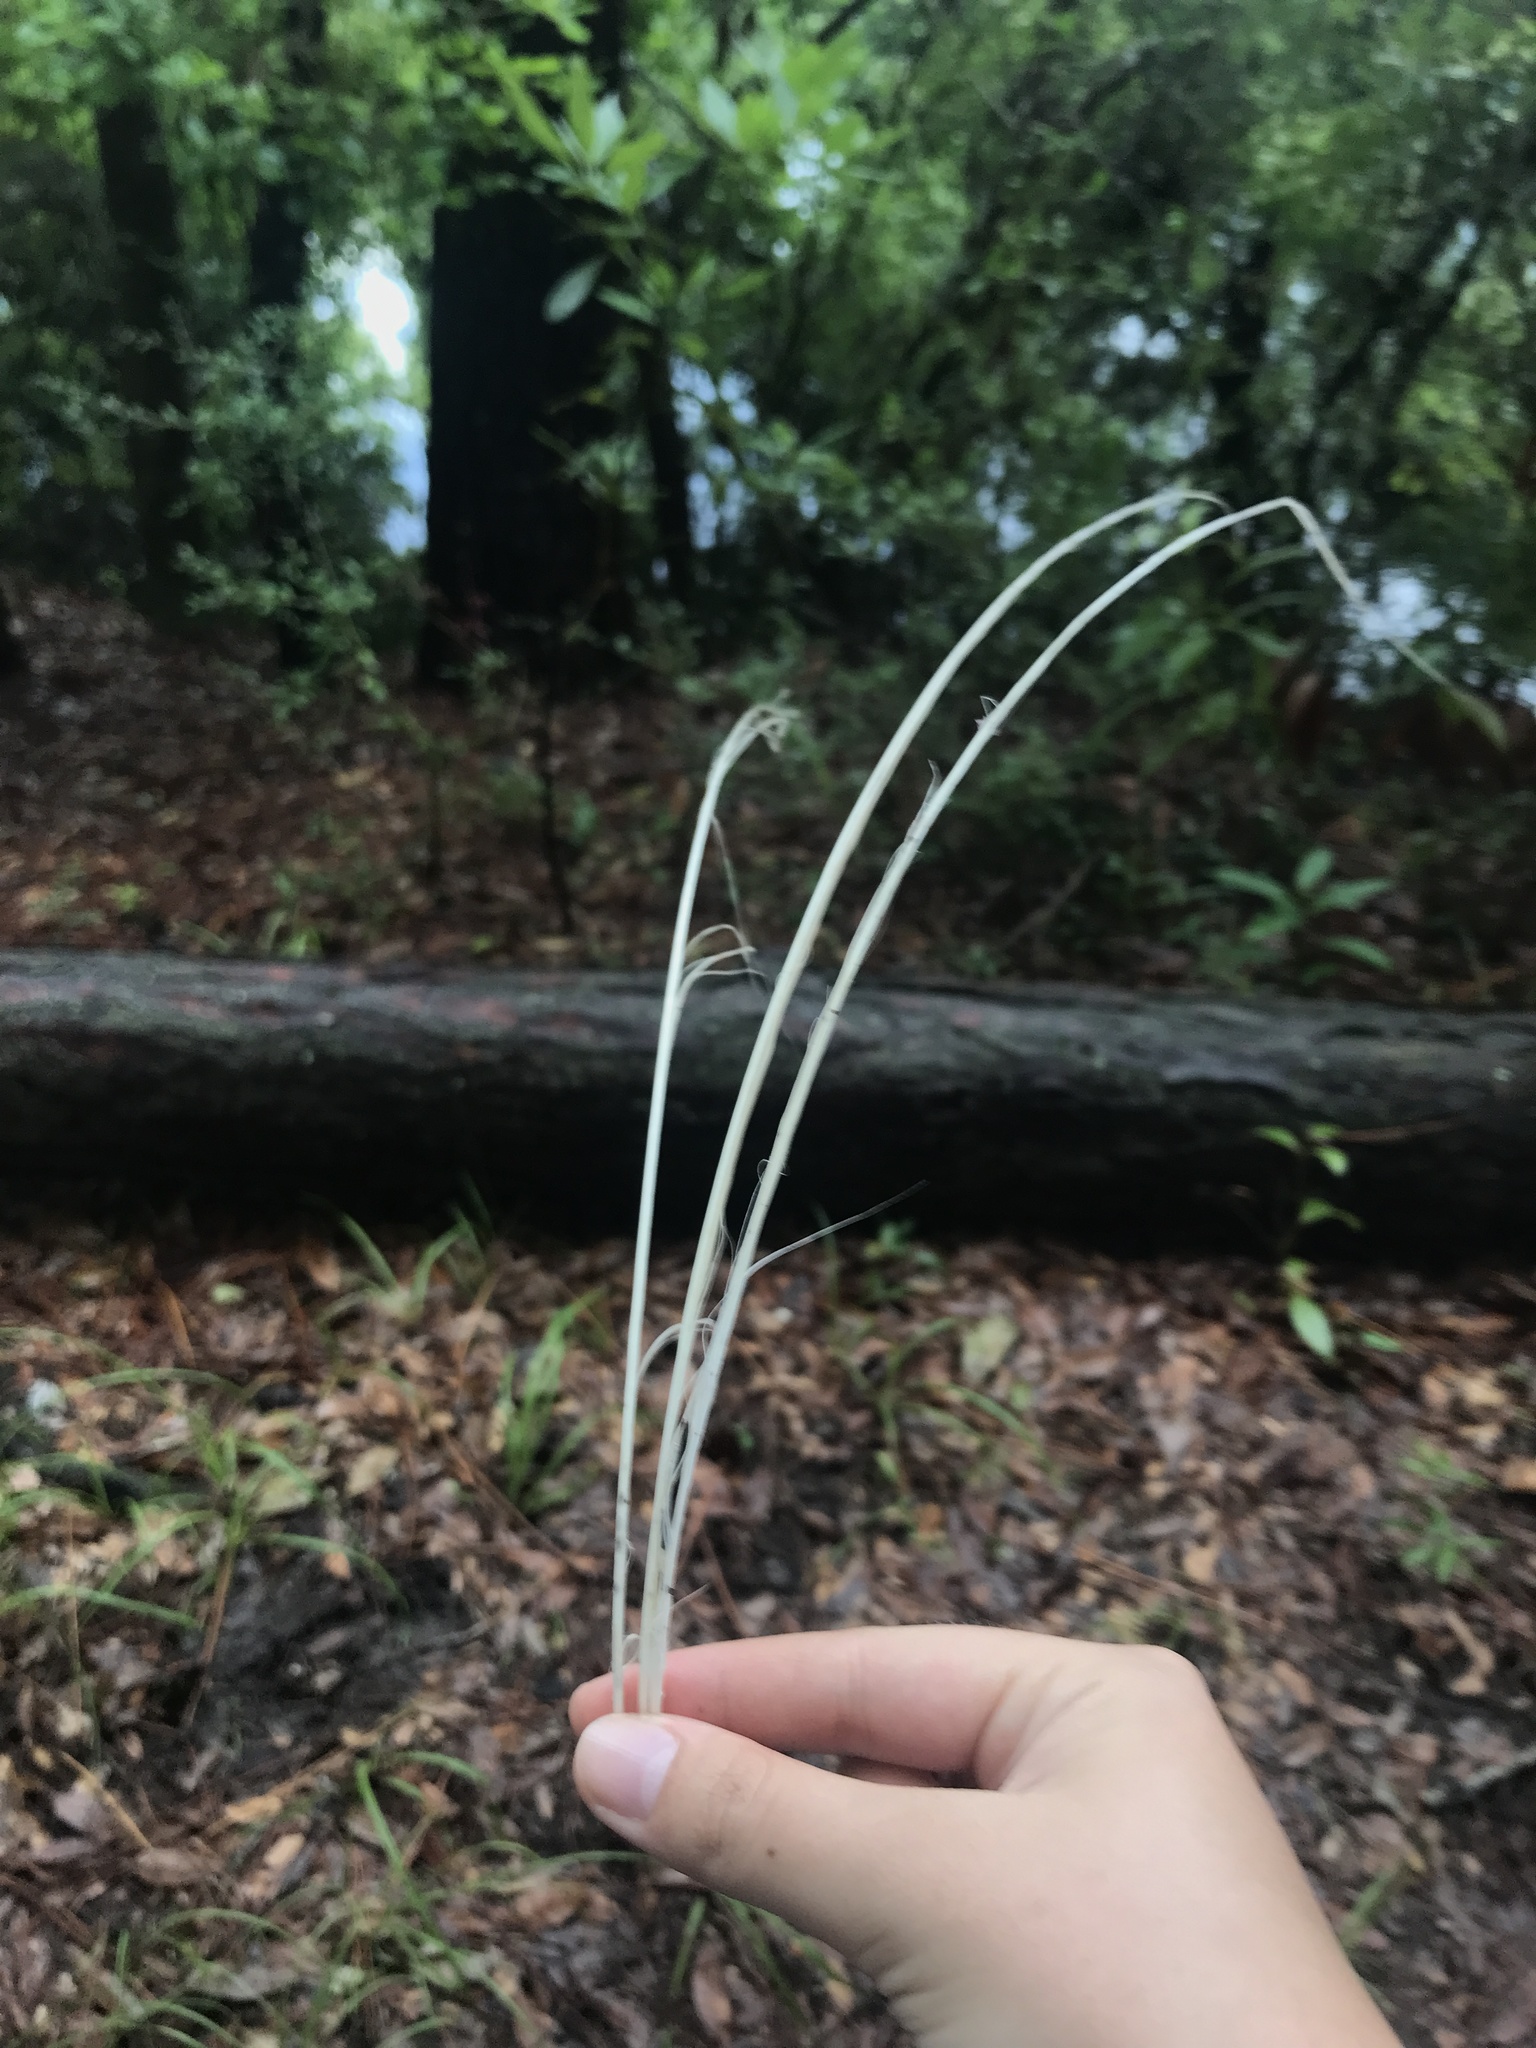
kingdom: Animalia
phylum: Chordata
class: Aves
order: Pelecaniformes
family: Ardeidae
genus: Ardea
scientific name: Ardea alba
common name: Great egret
